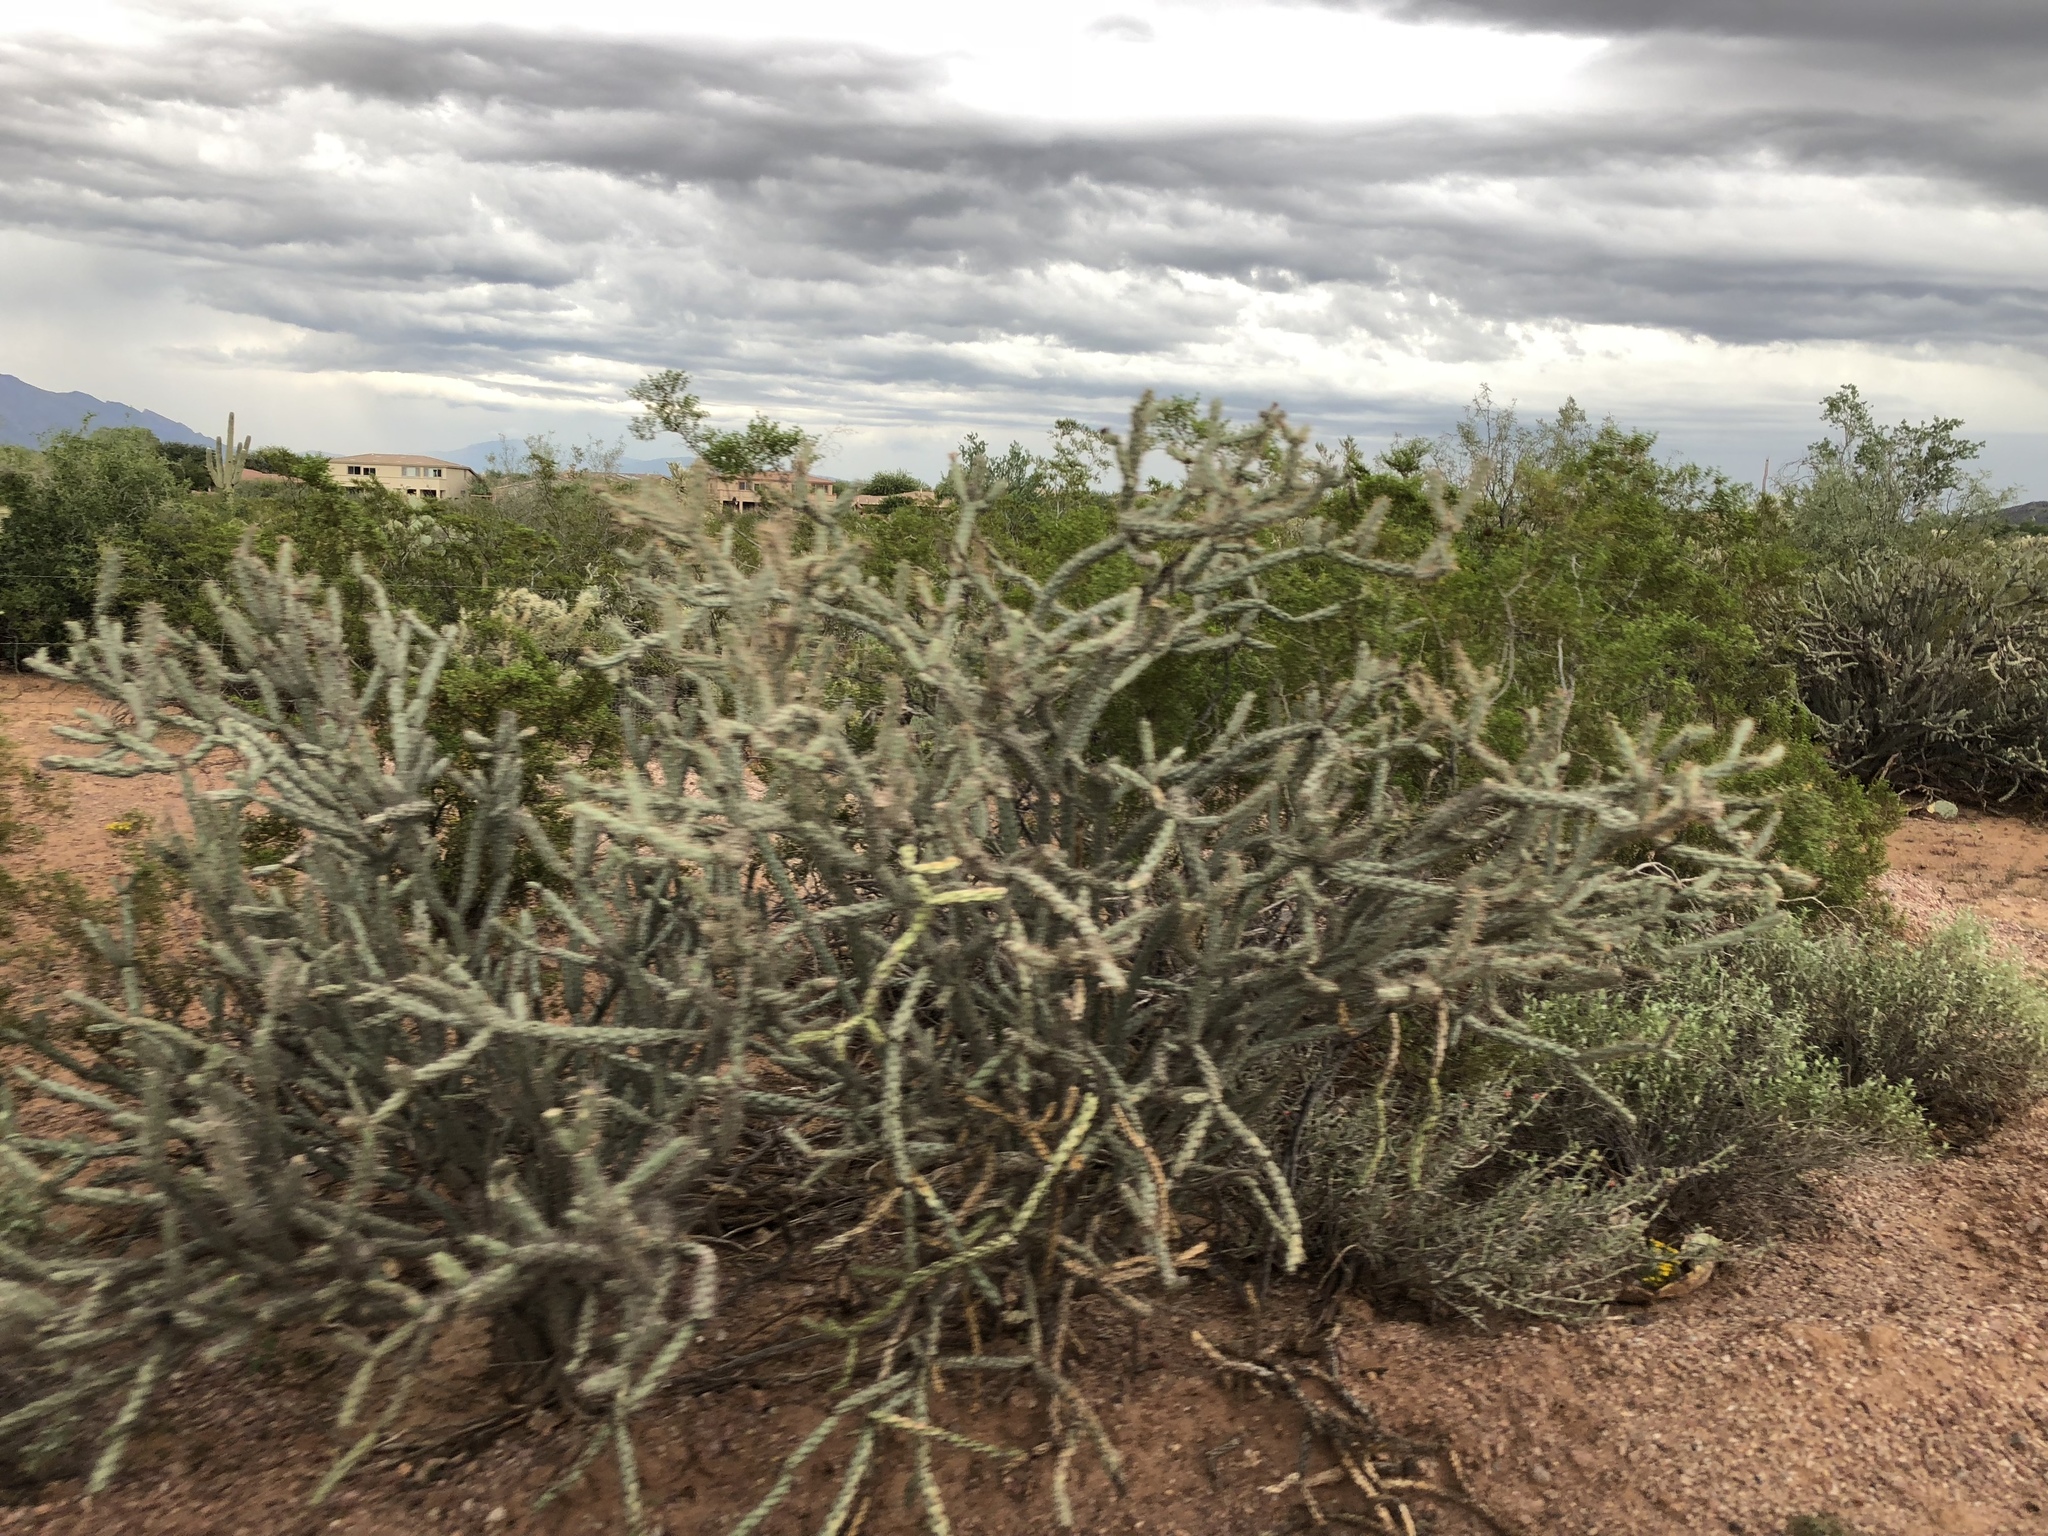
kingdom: Plantae
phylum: Tracheophyta
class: Magnoliopsida
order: Caryophyllales
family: Cactaceae
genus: Cylindropuntia
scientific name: Cylindropuntia thurberi
